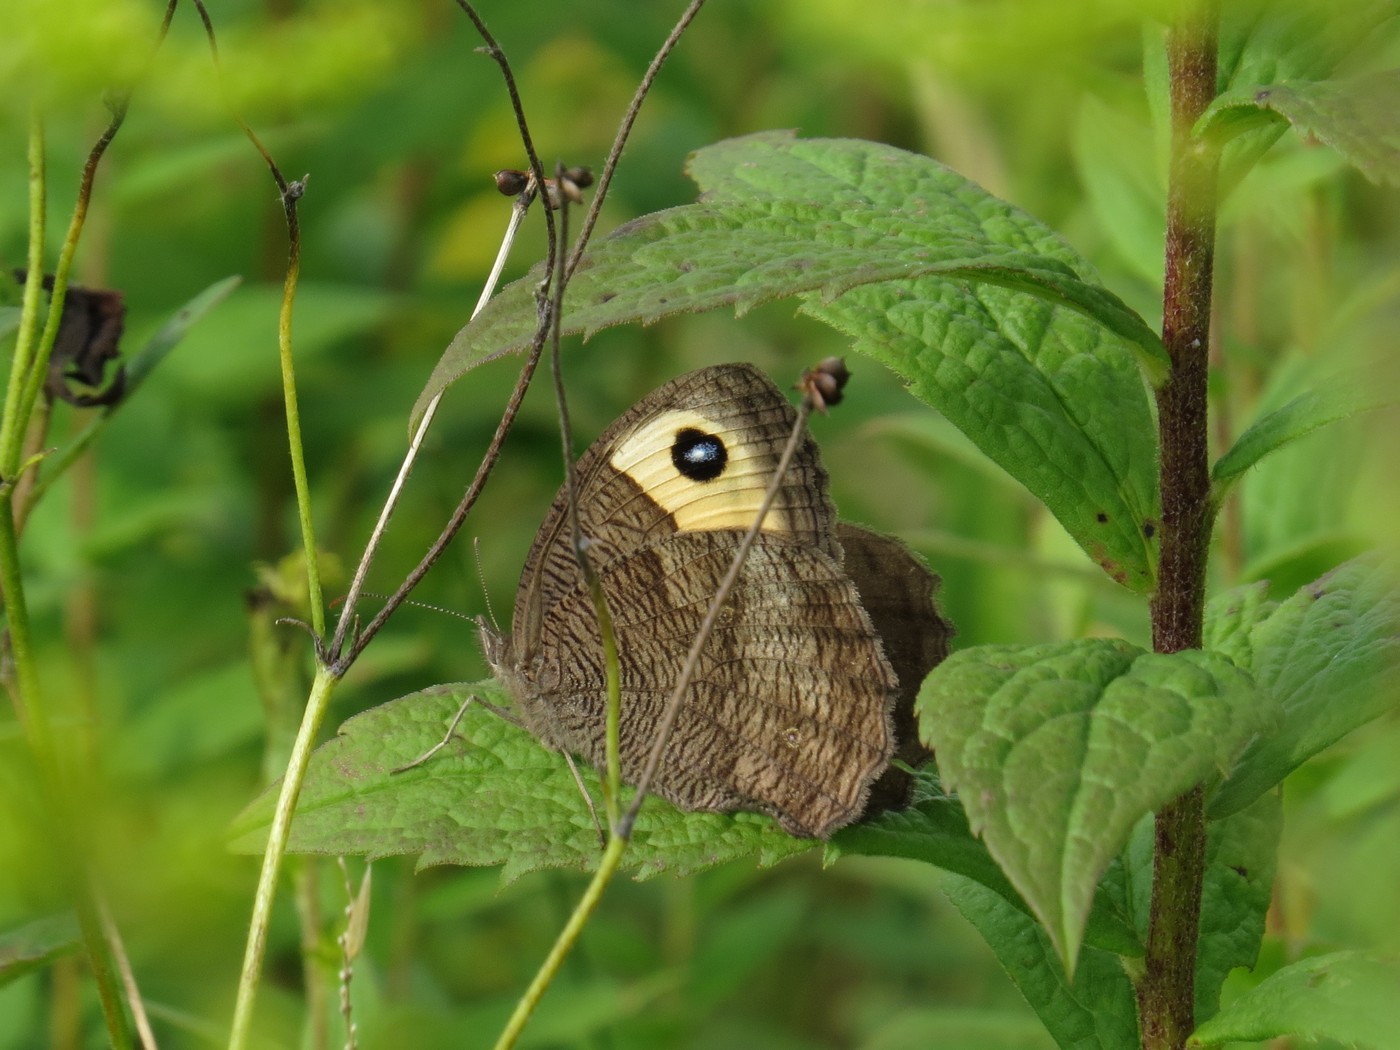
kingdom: Animalia
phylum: Arthropoda
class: Insecta
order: Lepidoptera
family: Nymphalidae
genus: Cercyonis
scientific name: Cercyonis pegala
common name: Common wood-nymph
